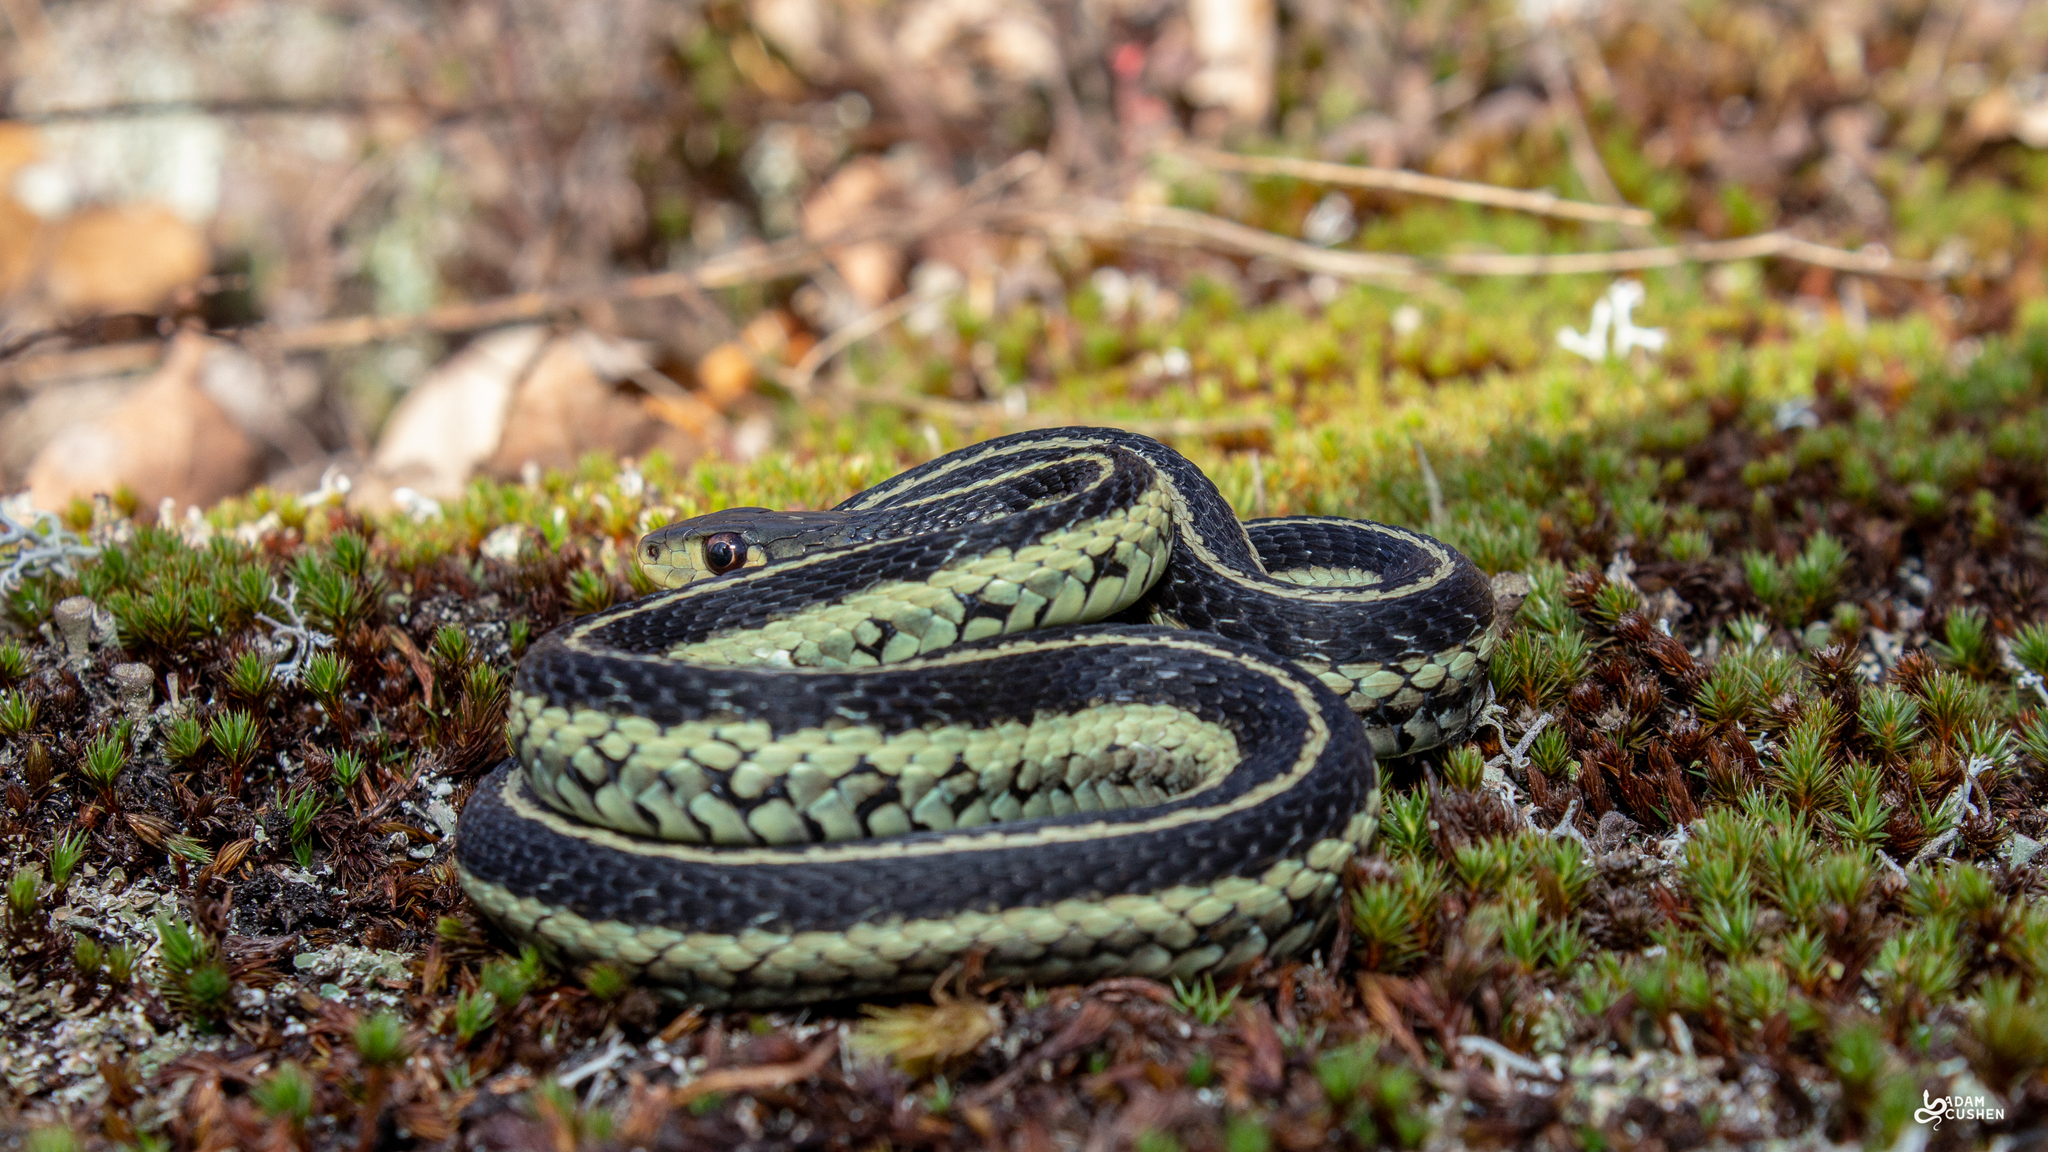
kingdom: Animalia
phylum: Chordata
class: Squamata
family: Colubridae
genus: Thamnophis
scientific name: Thamnophis sirtalis
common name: Common garter snake
